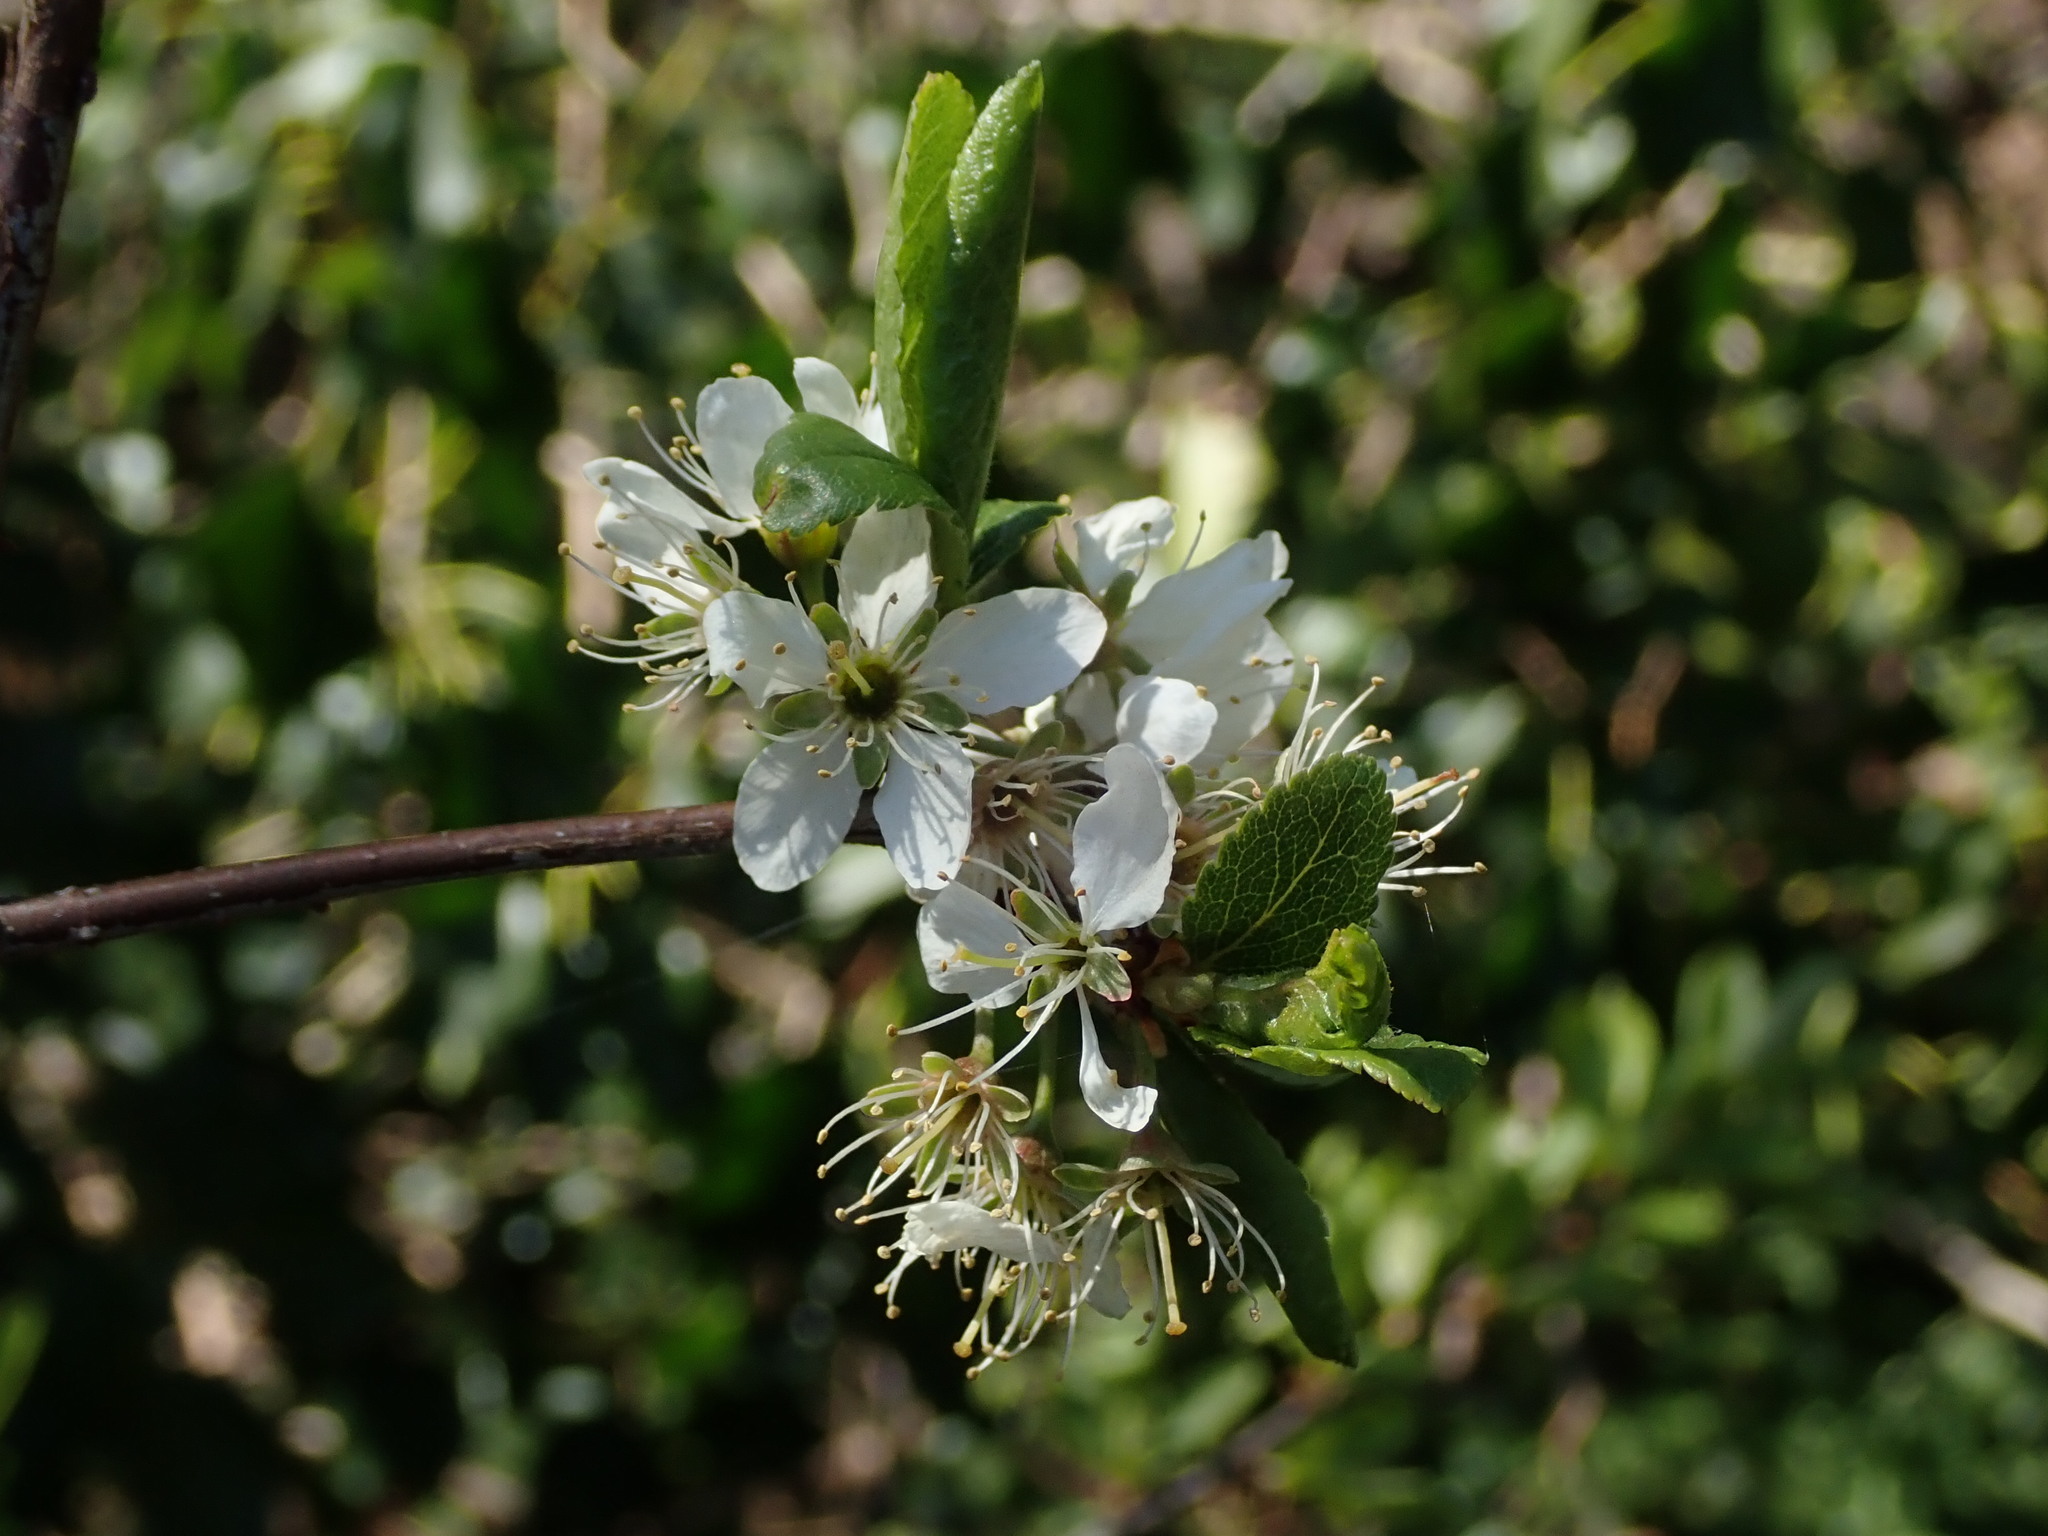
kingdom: Plantae
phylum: Tracheophyta
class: Magnoliopsida
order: Rosales
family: Rosaceae
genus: Prunus
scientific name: Prunus spinosa
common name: Blackthorn
